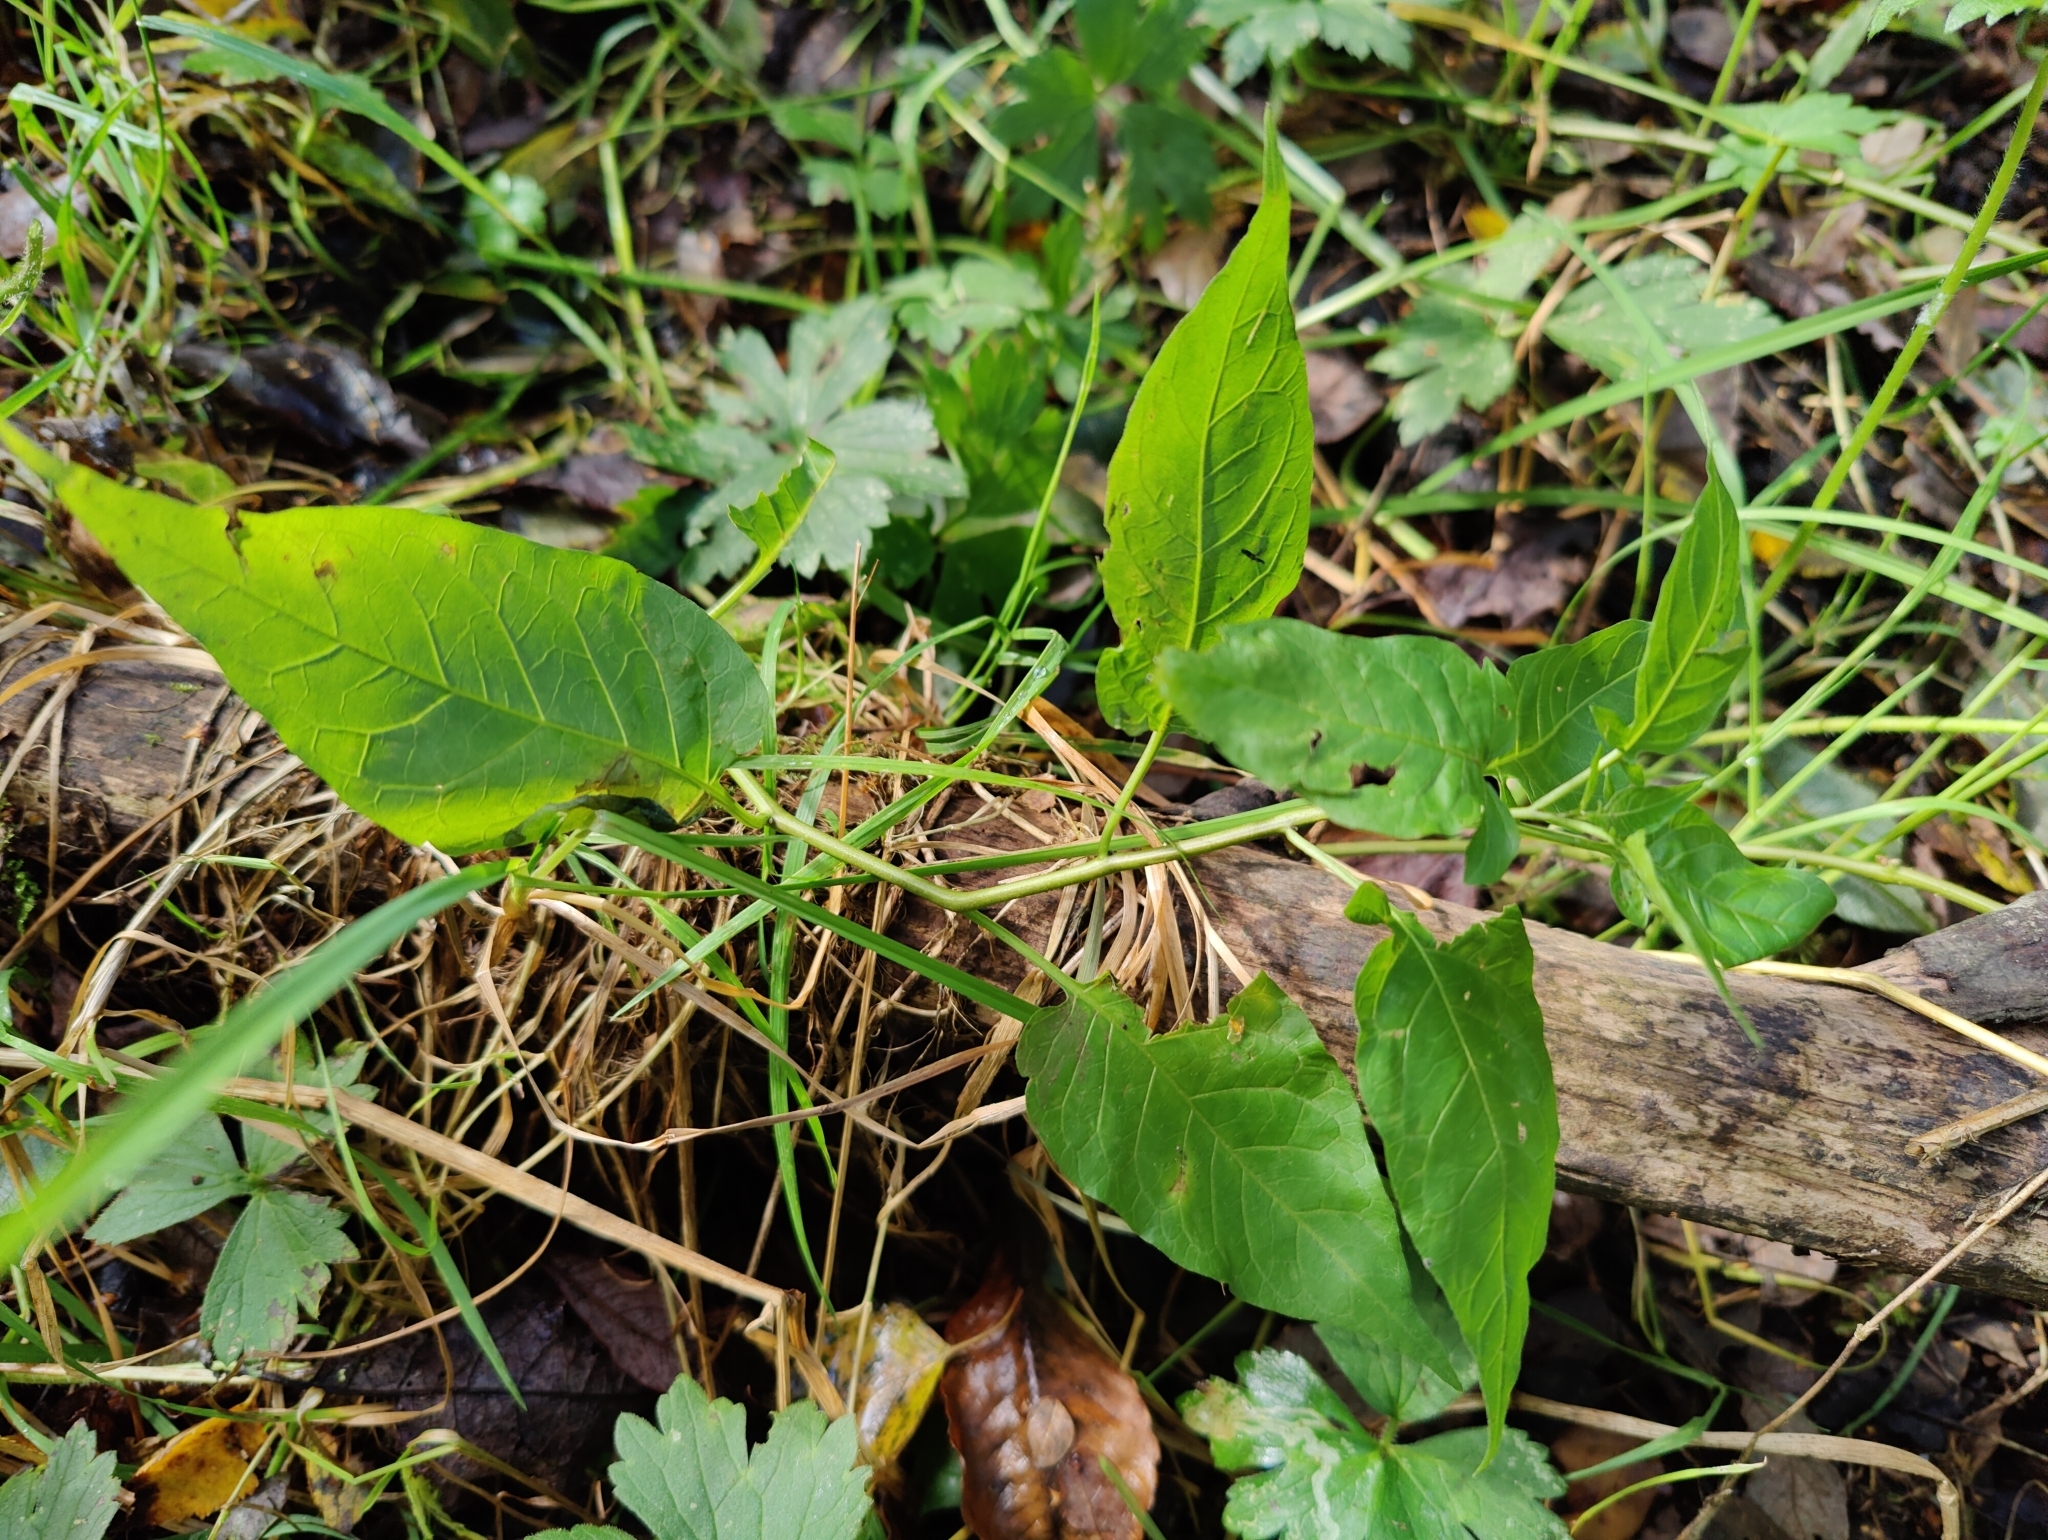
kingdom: Plantae
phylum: Tracheophyta
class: Magnoliopsida
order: Solanales
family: Solanaceae
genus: Solanum
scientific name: Solanum dulcamara
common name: Climbing nightshade
